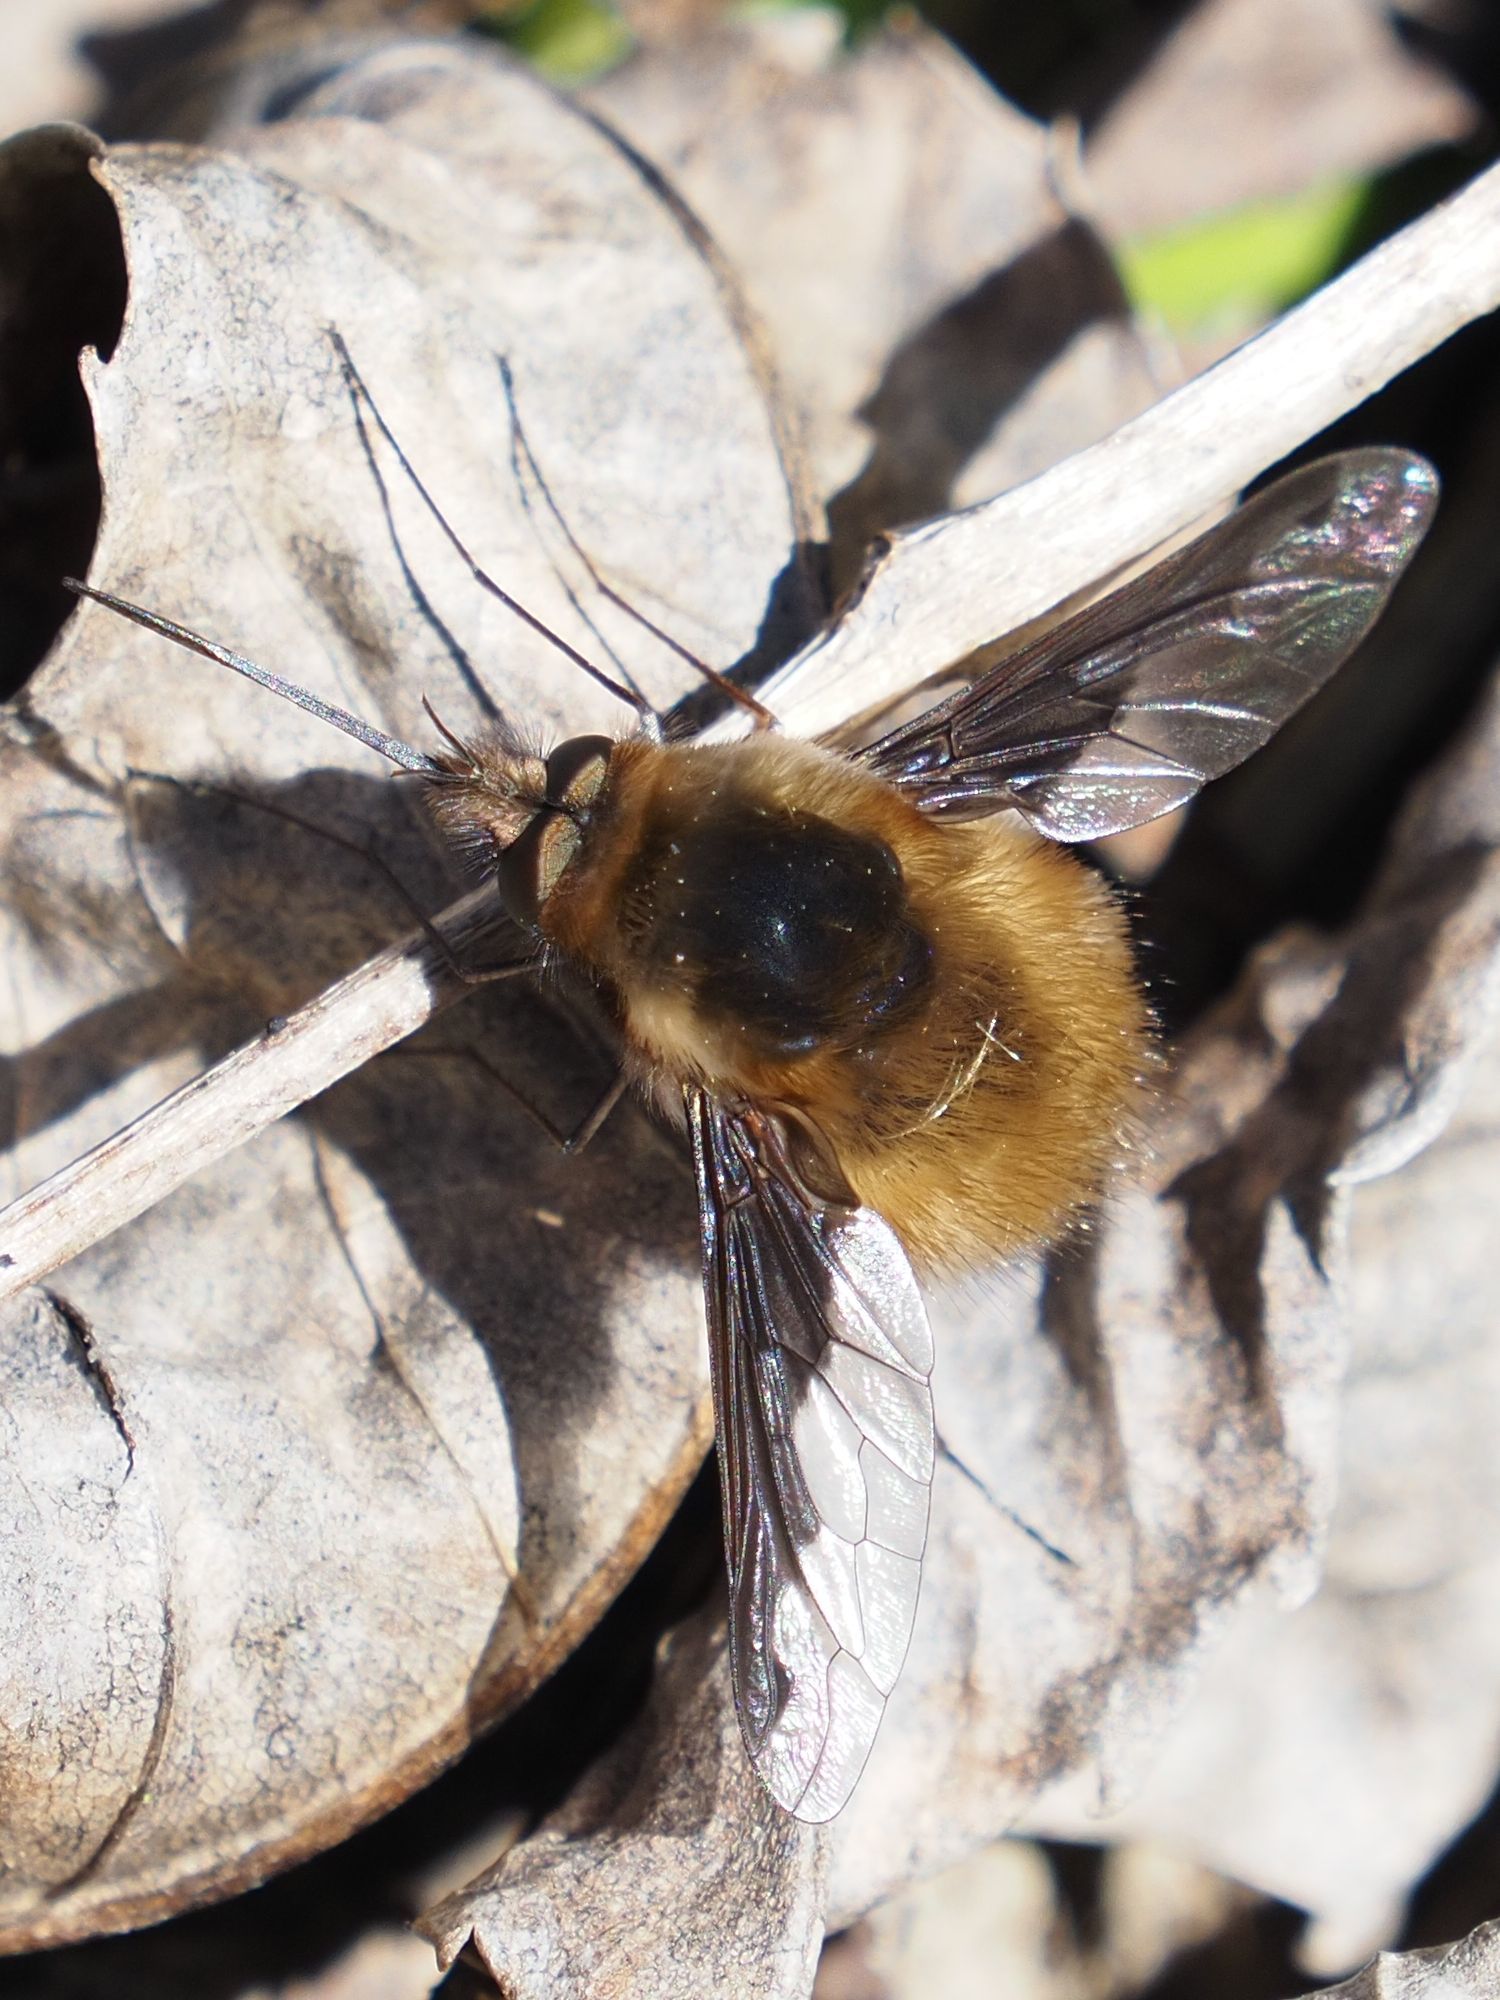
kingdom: Animalia
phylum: Arthropoda
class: Insecta
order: Diptera
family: Bombyliidae
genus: Bombylius
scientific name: Bombylius major
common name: Bee fly
